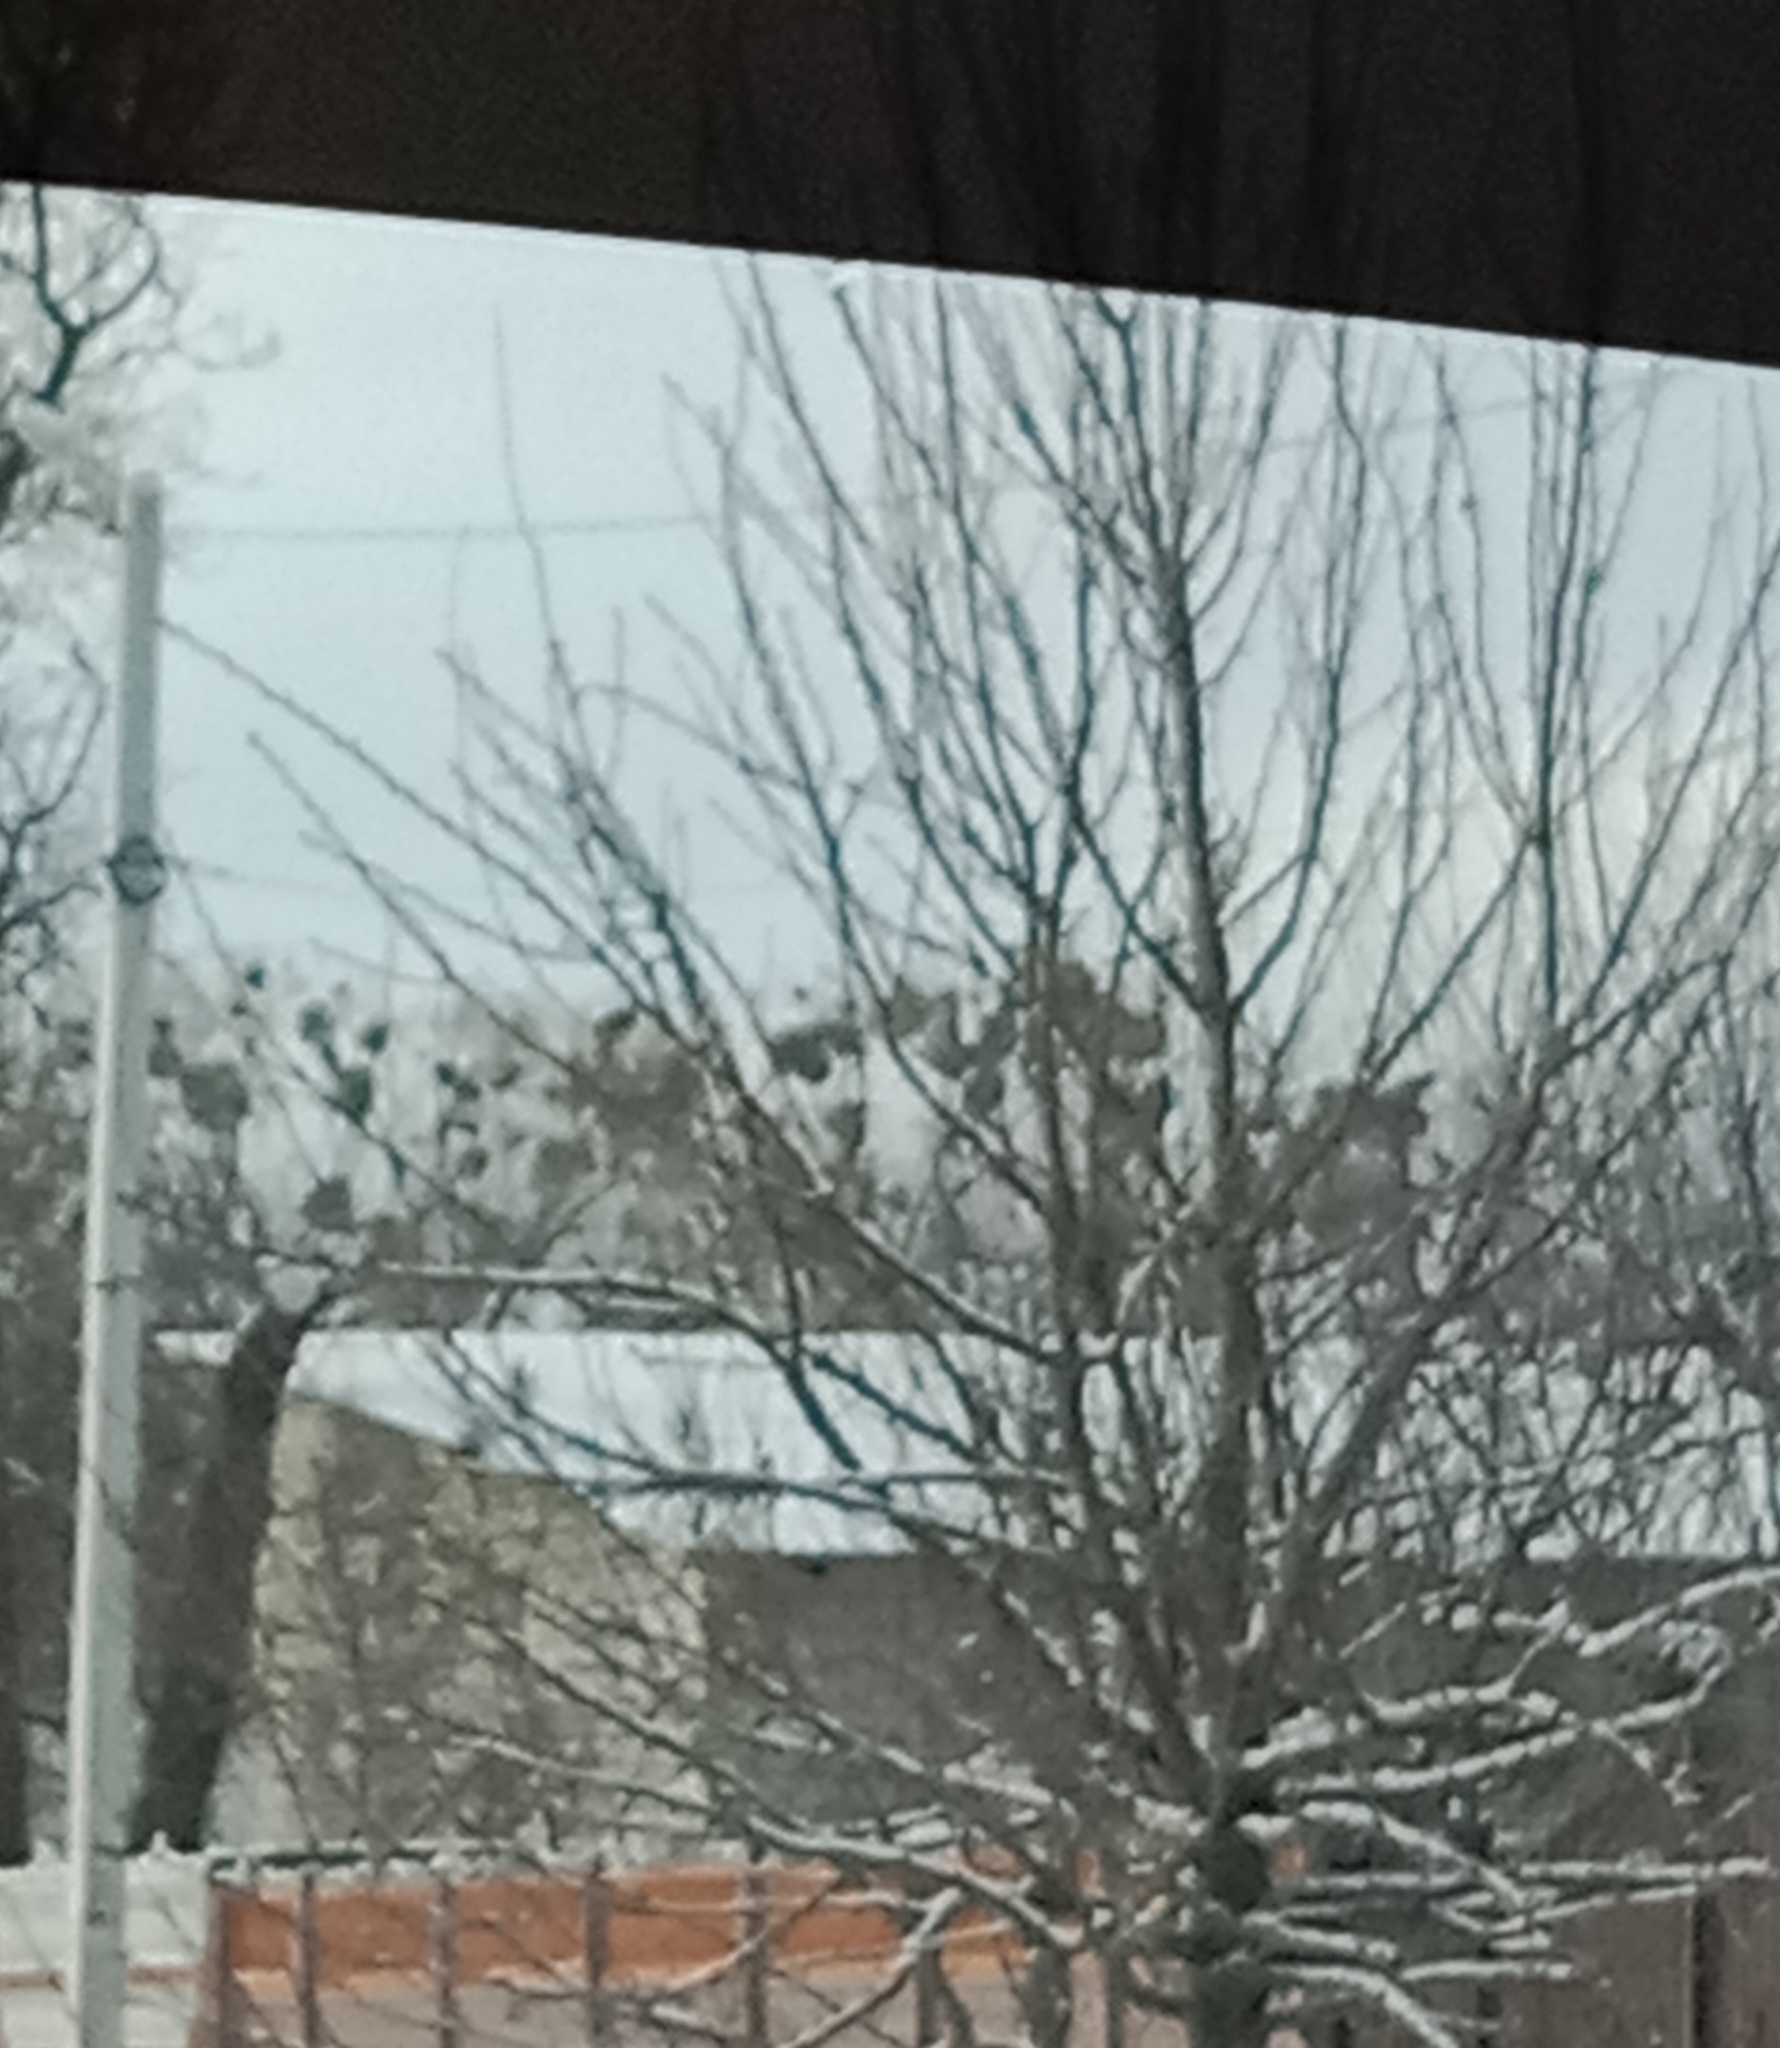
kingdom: Plantae
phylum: Tracheophyta
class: Magnoliopsida
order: Santalales
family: Viscaceae
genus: Viscum
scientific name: Viscum album
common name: Mistletoe
